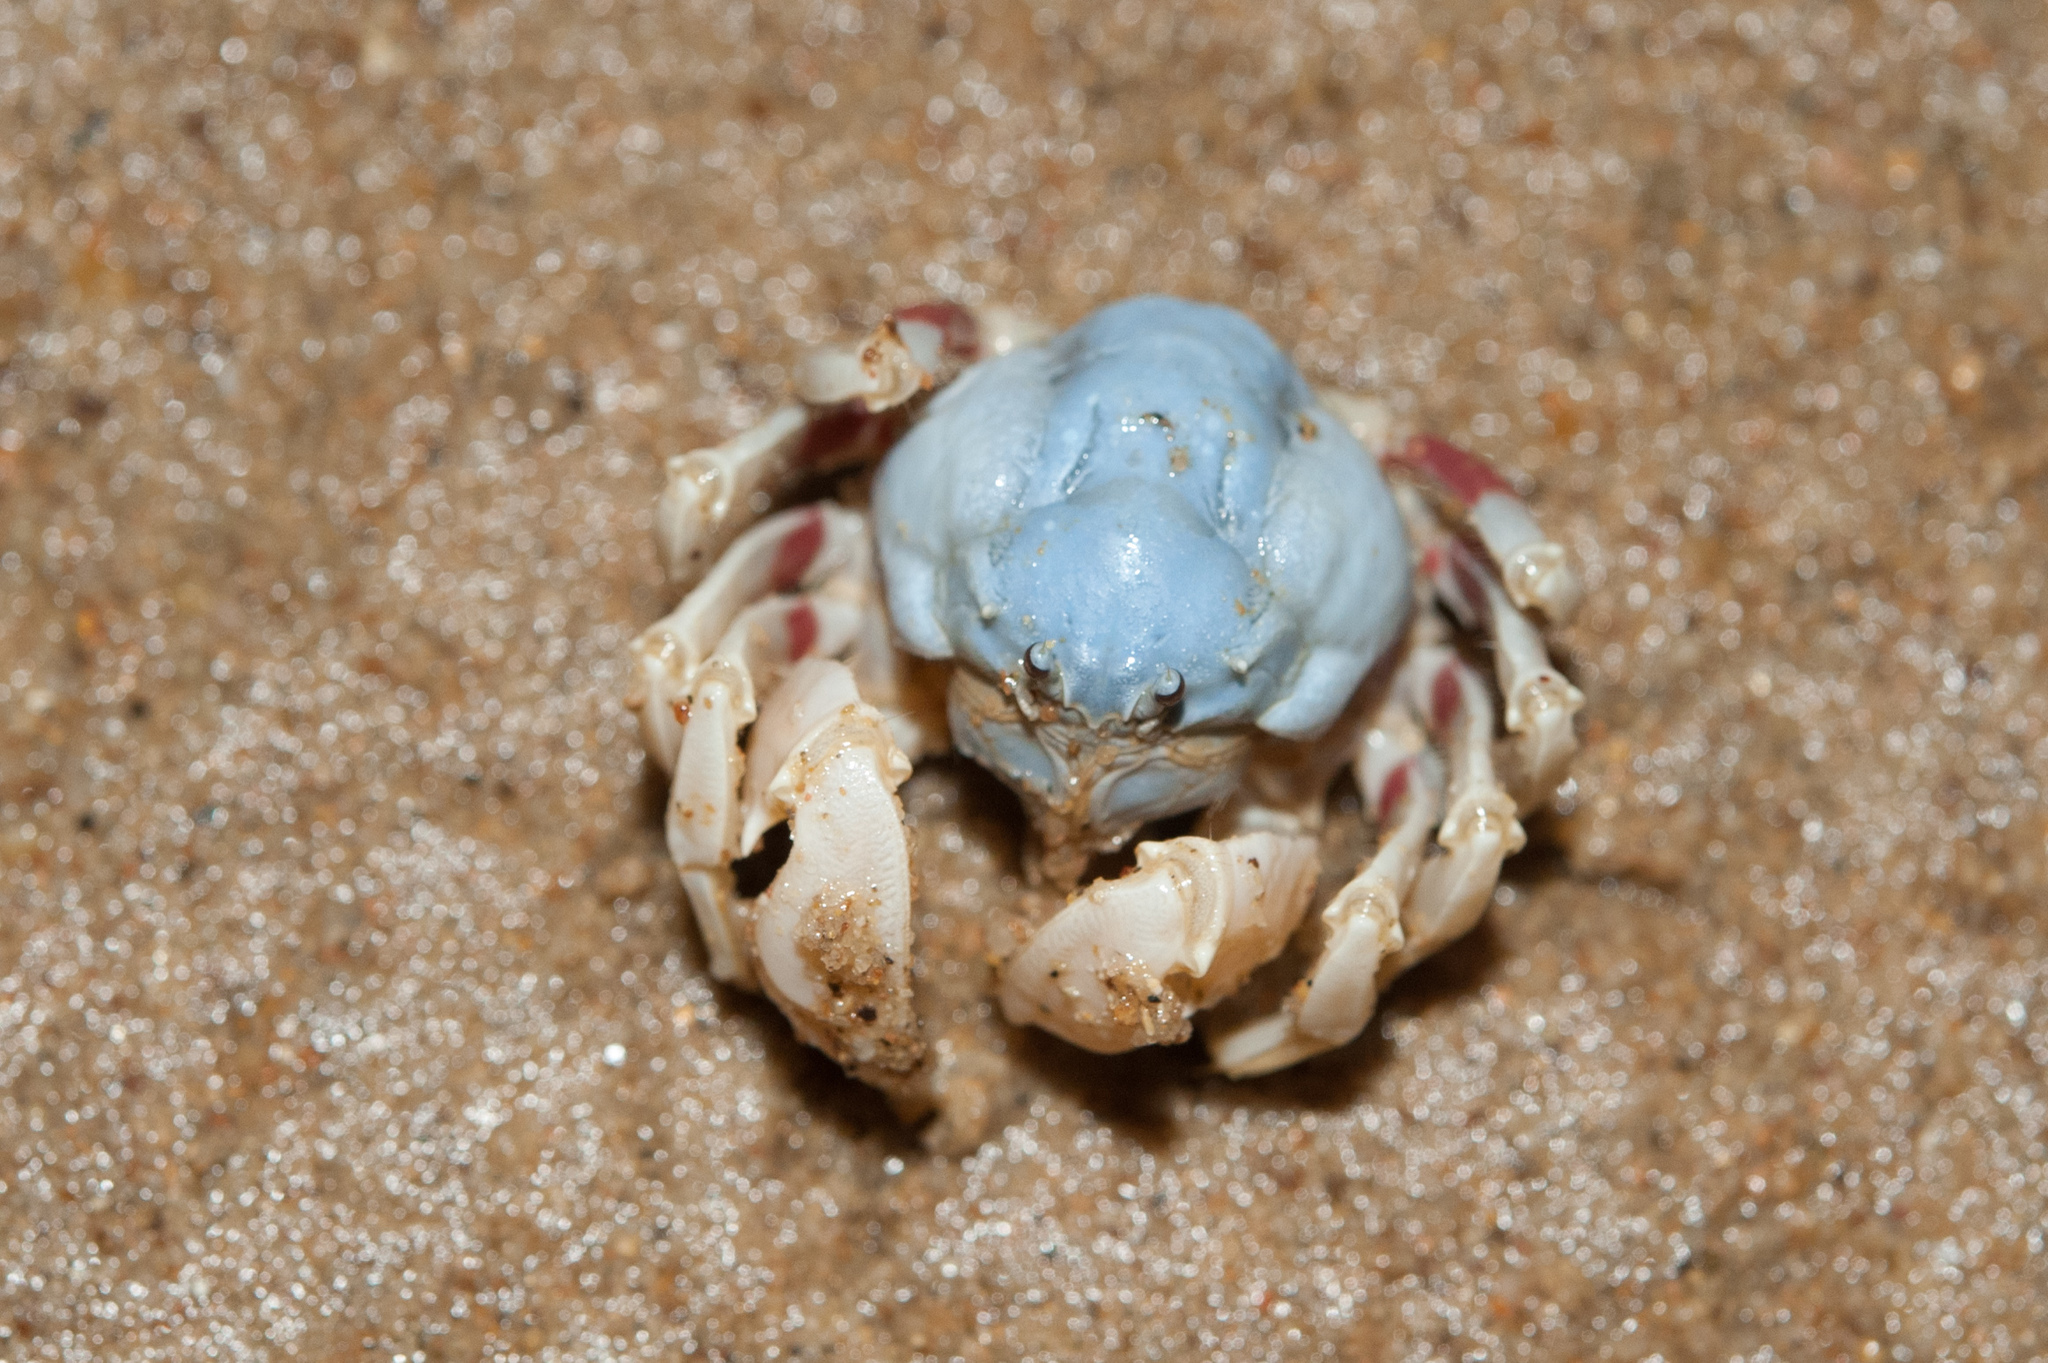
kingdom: Animalia
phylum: Arthropoda
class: Malacostraca
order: Decapoda
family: Mictyridae
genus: Mictyris
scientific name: Mictyris brevidactylus
